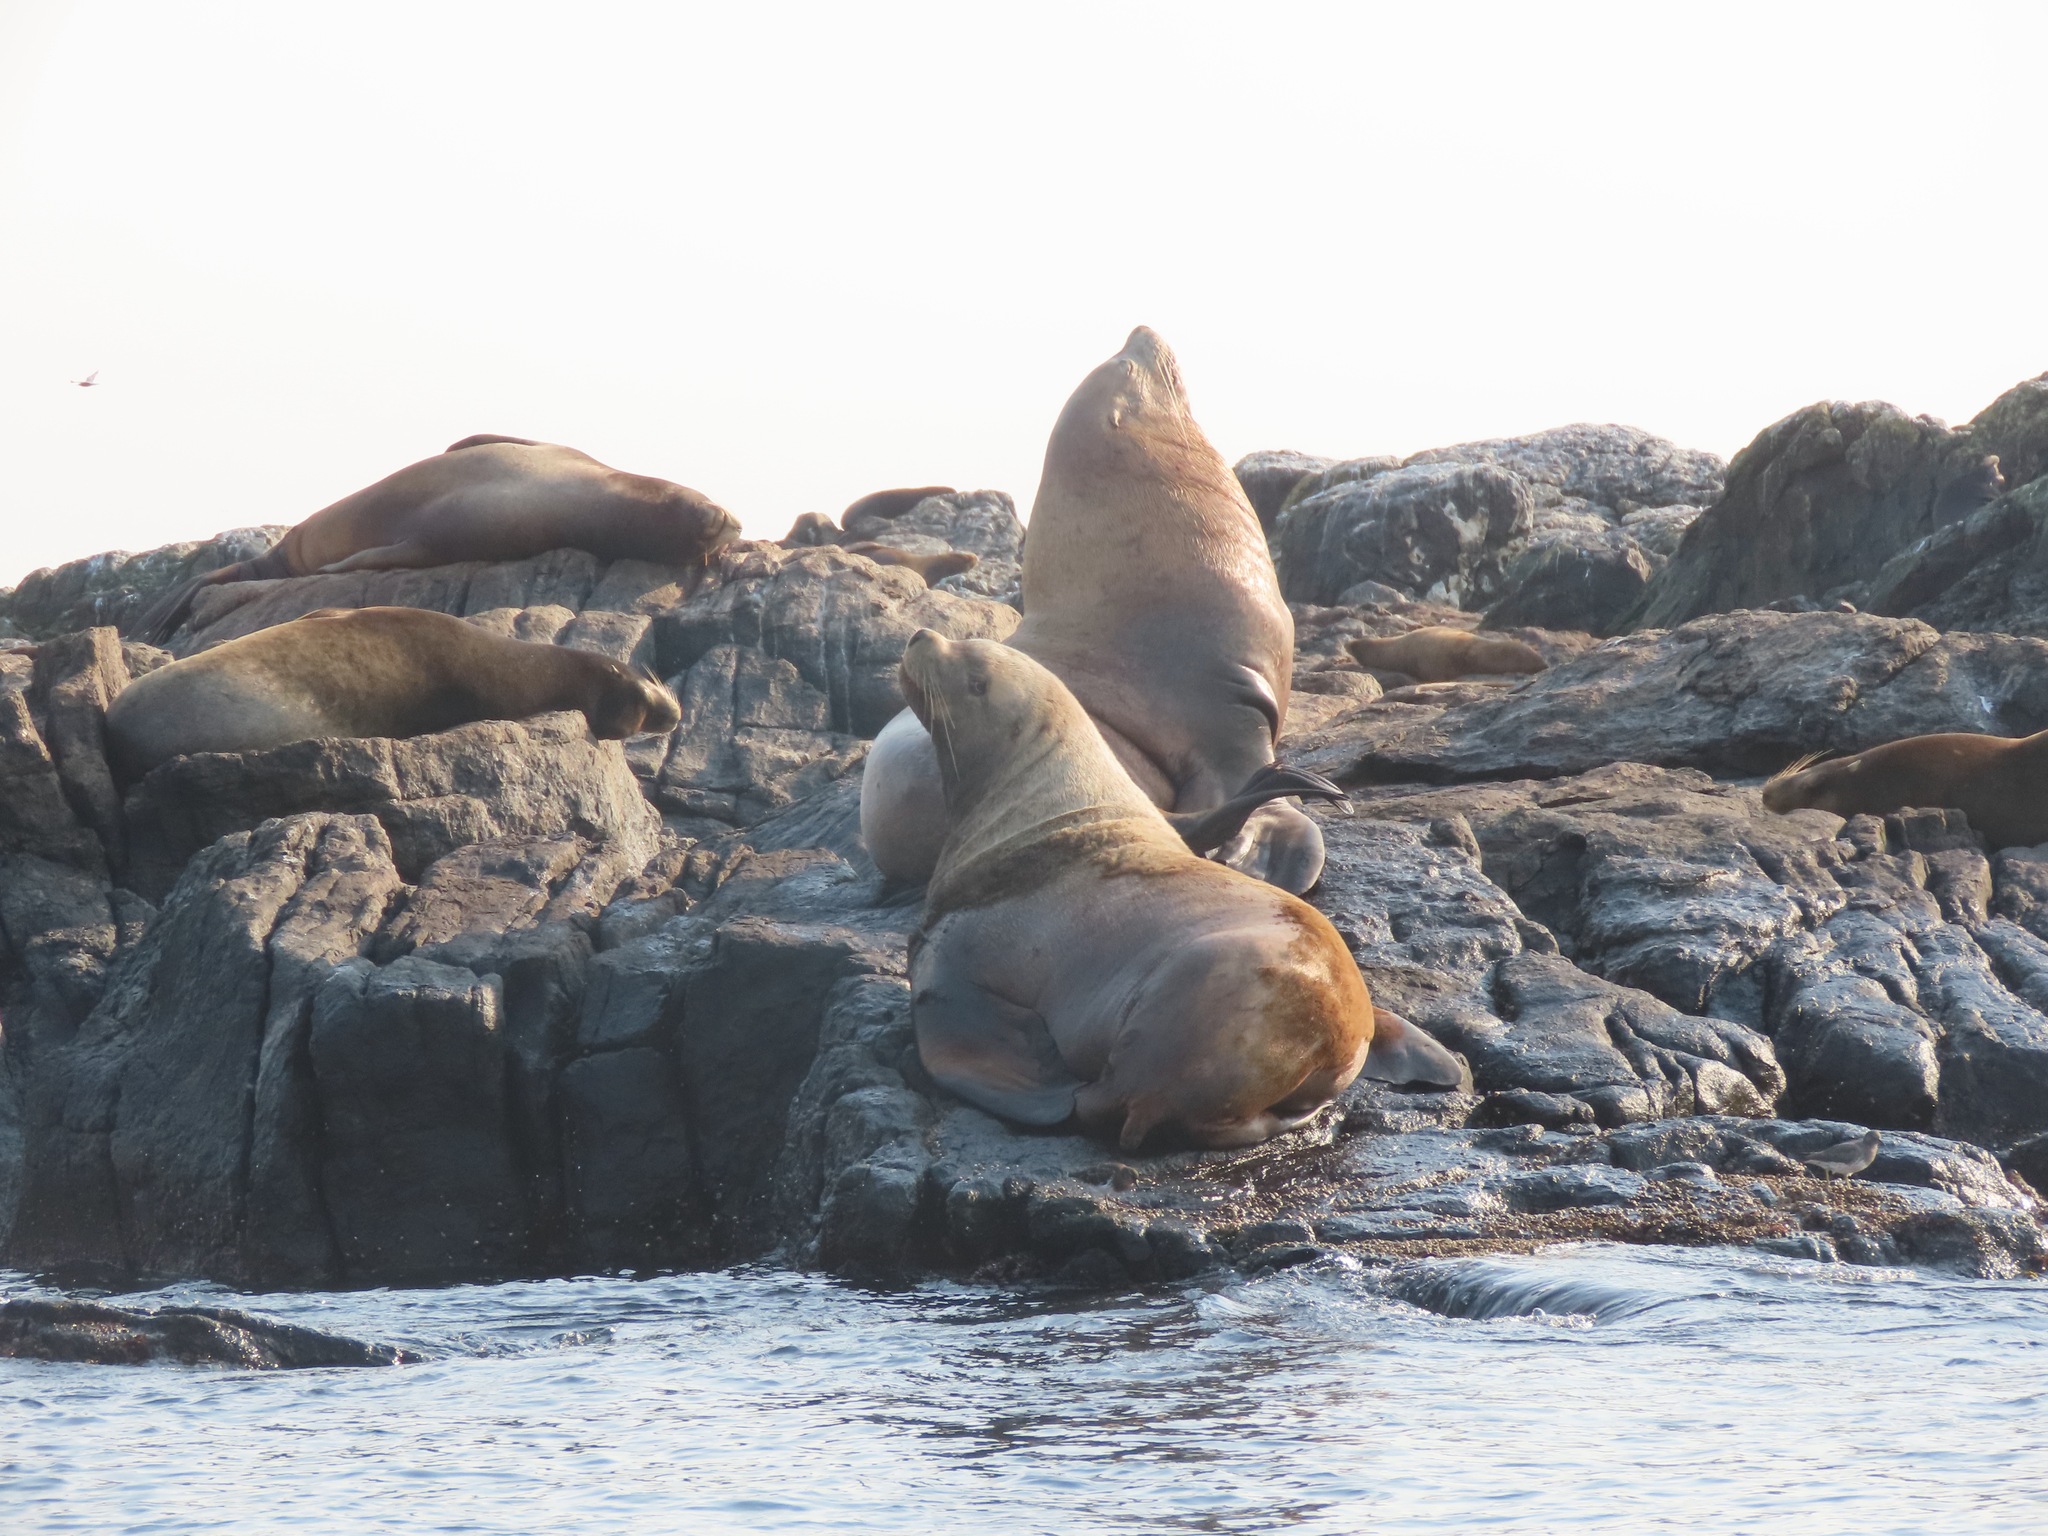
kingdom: Animalia
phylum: Chordata
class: Mammalia
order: Carnivora
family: Otariidae
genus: Eumetopias
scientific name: Eumetopias jubatus
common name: Steller sea lion
